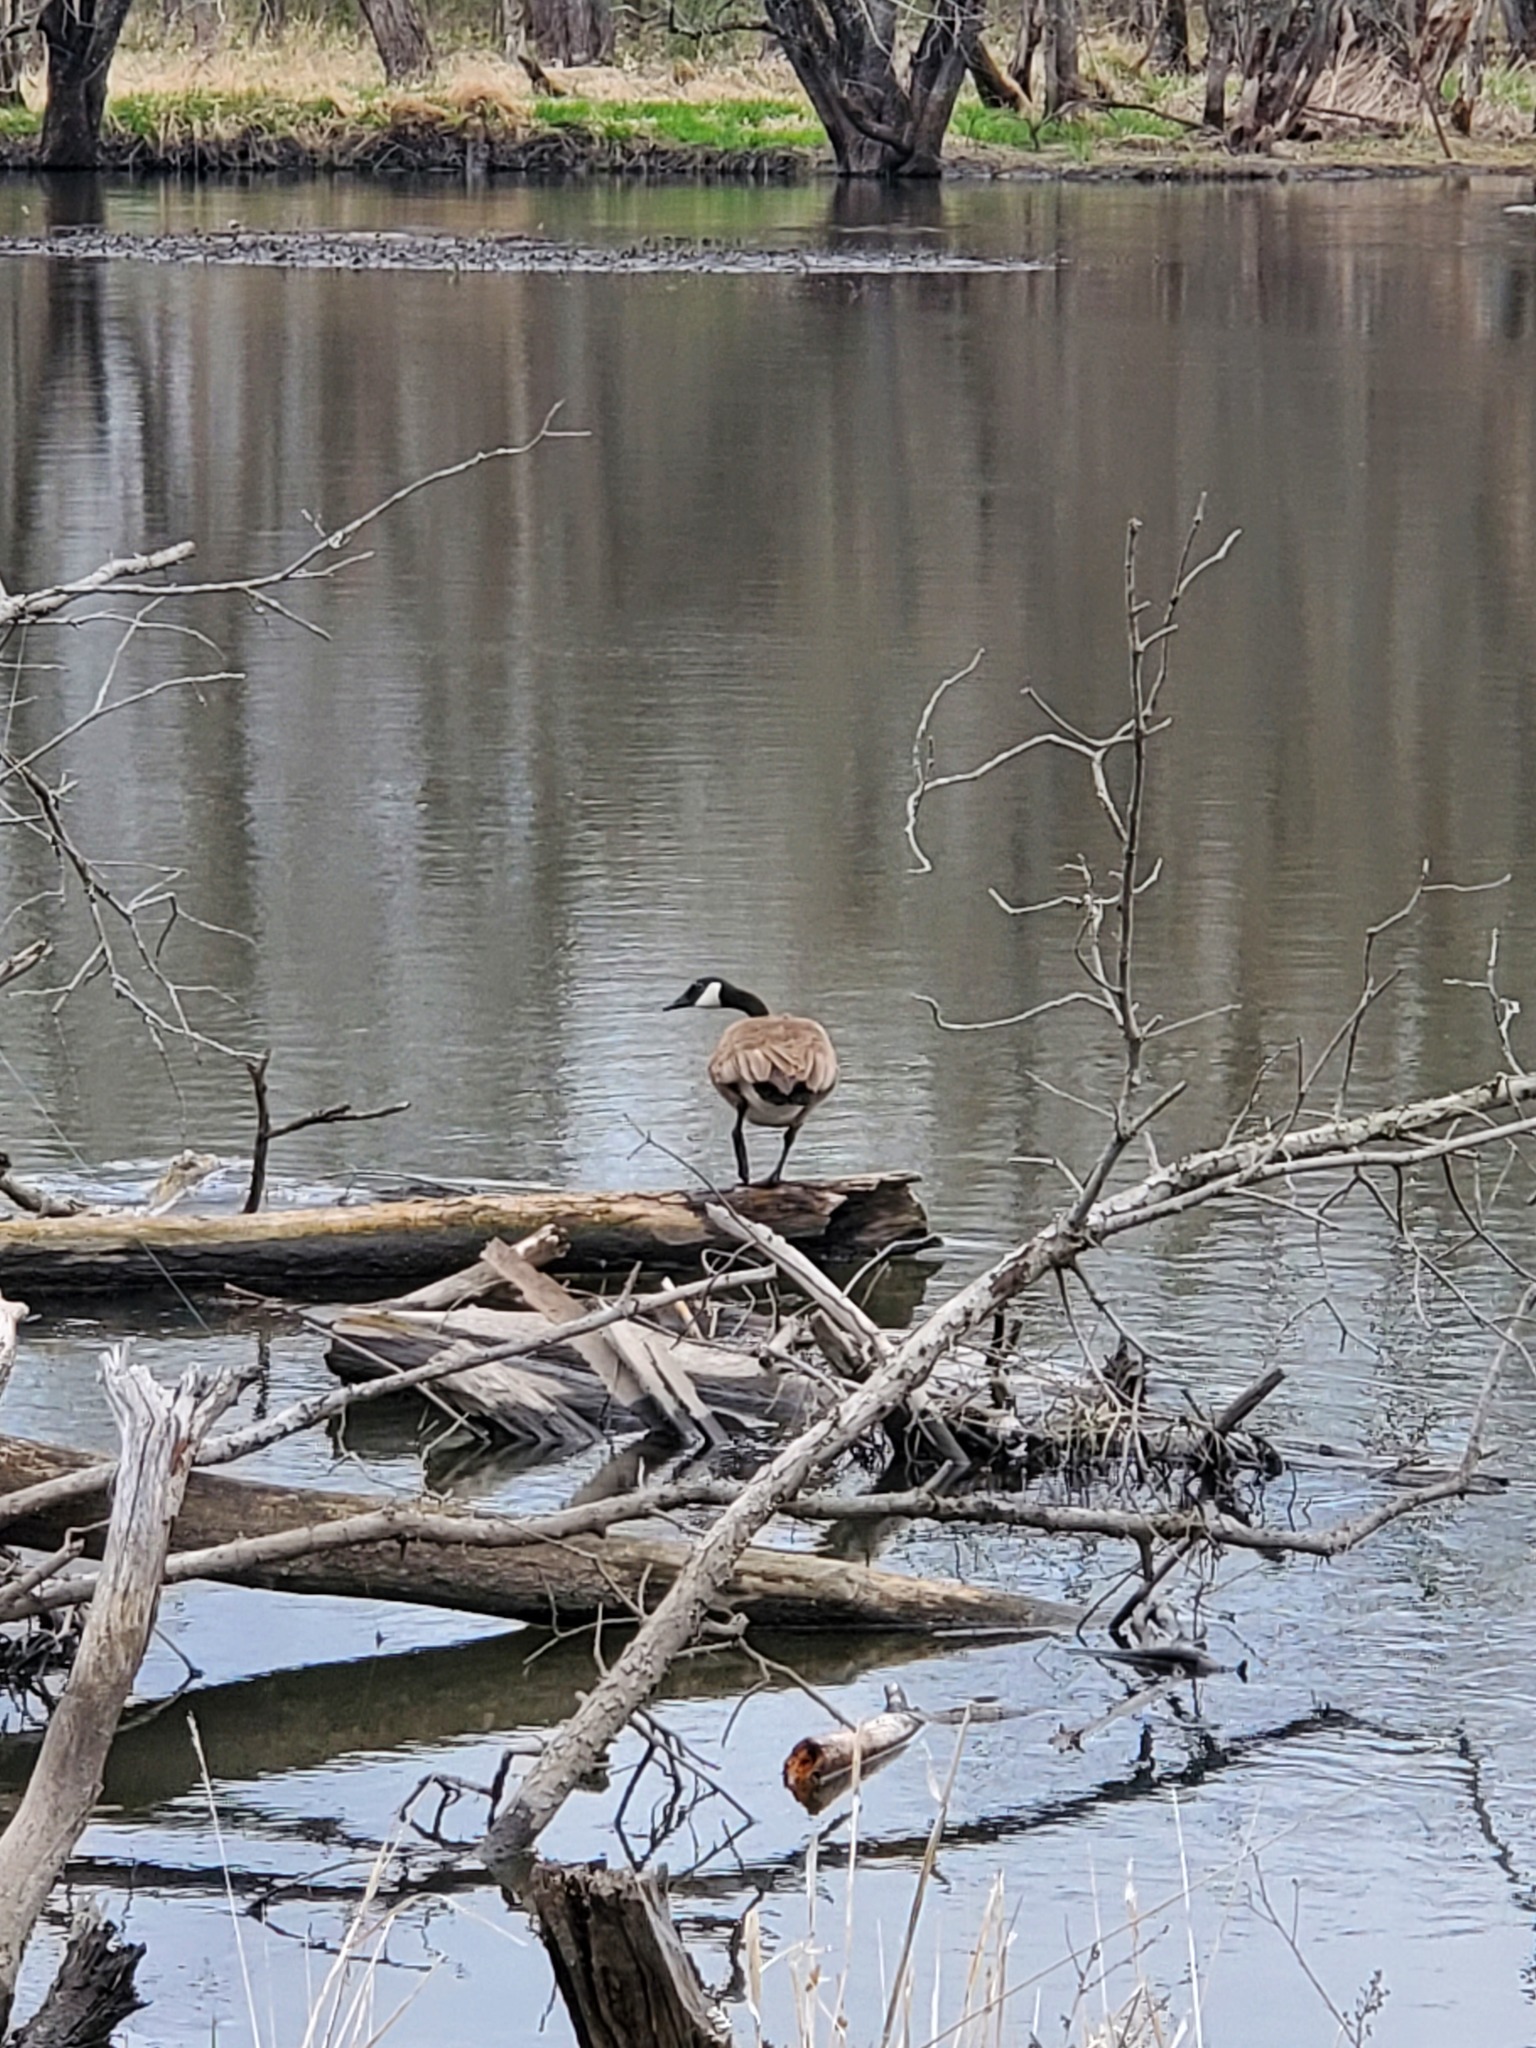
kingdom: Animalia
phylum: Chordata
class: Aves
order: Anseriformes
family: Anatidae
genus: Branta
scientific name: Branta canadensis
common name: Canada goose
